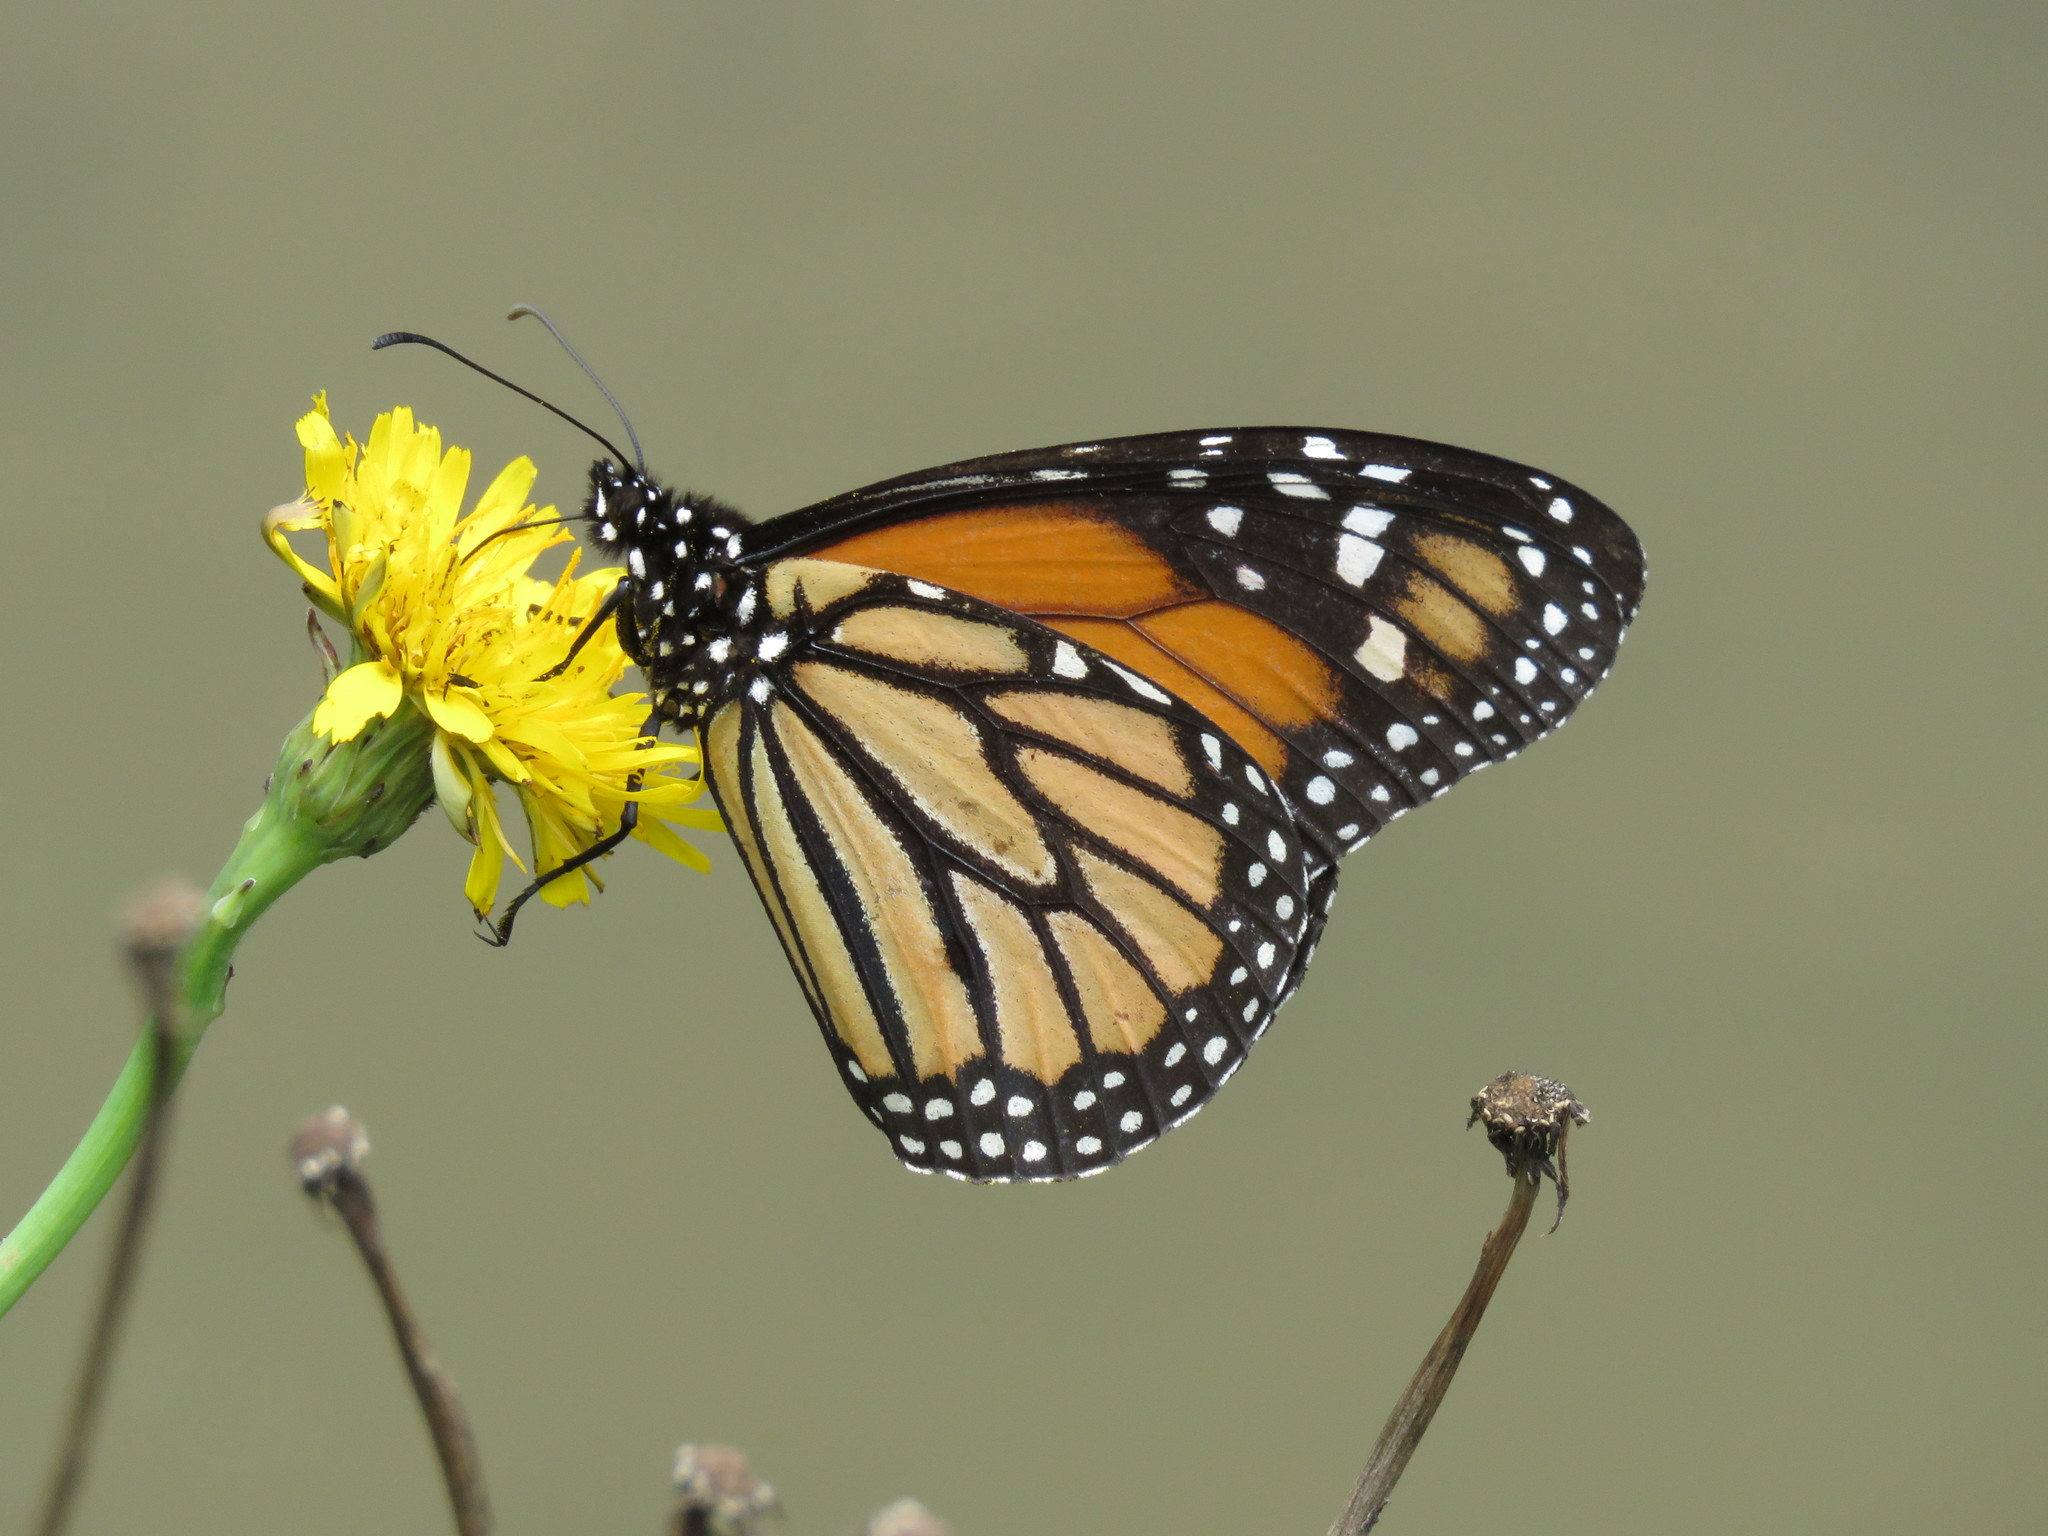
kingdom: Animalia
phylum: Arthropoda
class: Insecta
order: Lepidoptera
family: Nymphalidae
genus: Danaus
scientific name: Danaus plexippus
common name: Monarch
